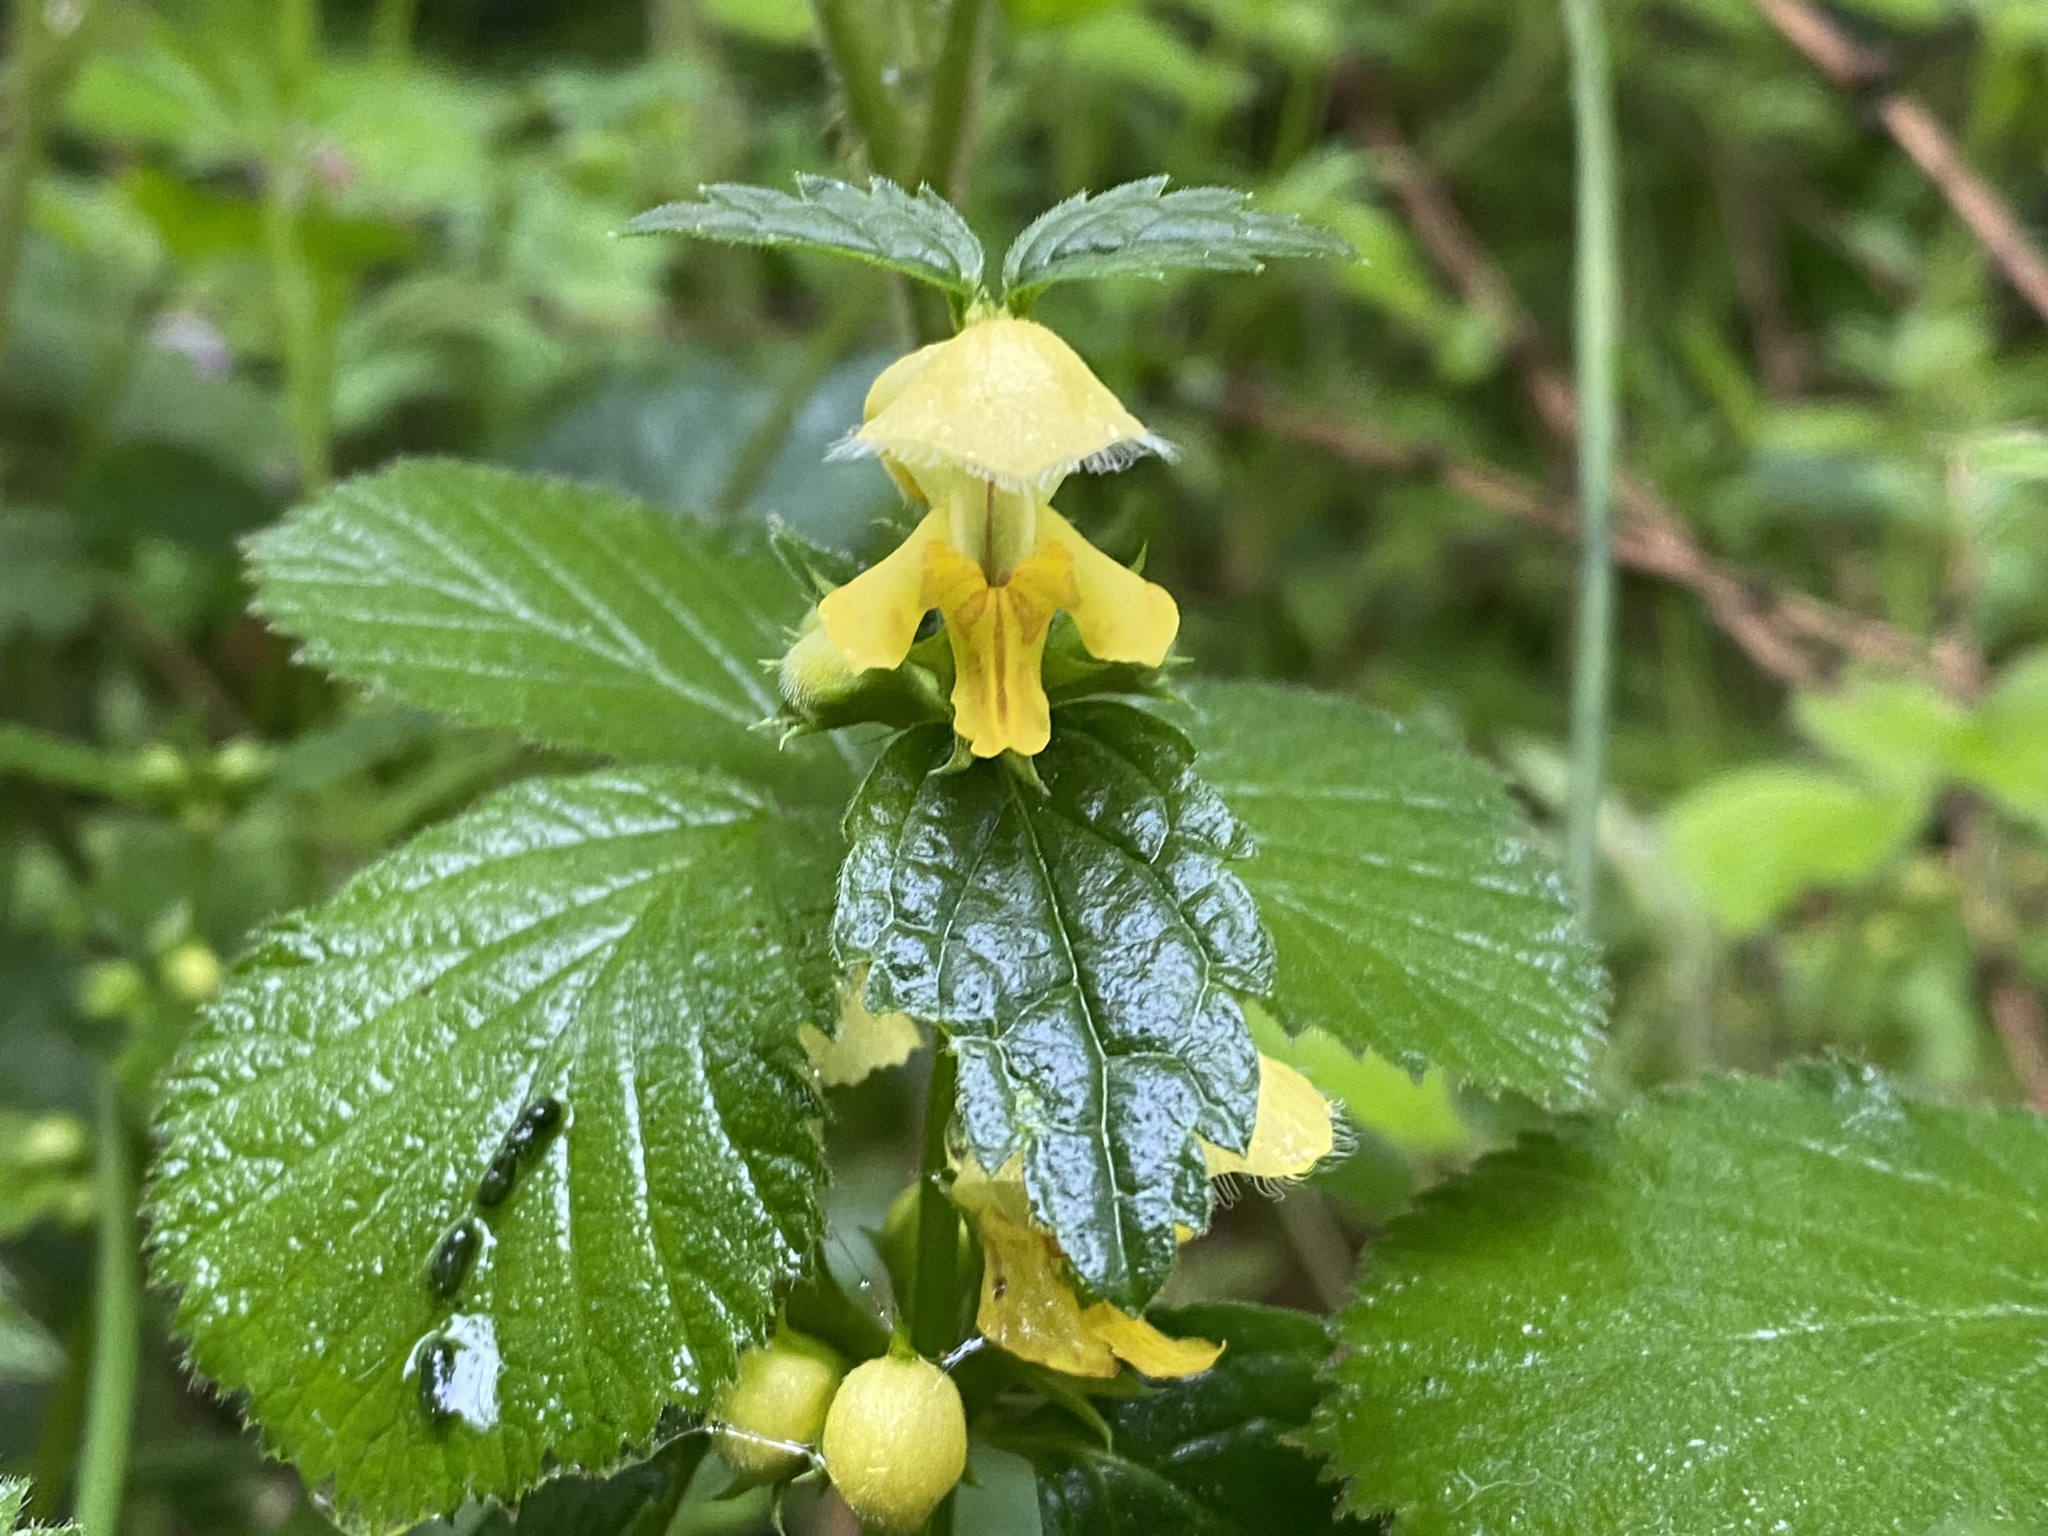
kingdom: Plantae
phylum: Tracheophyta
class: Magnoliopsida
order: Lamiales
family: Lamiaceae
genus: Lamium
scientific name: Lamium galeobdolon
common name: Yellow archangel
